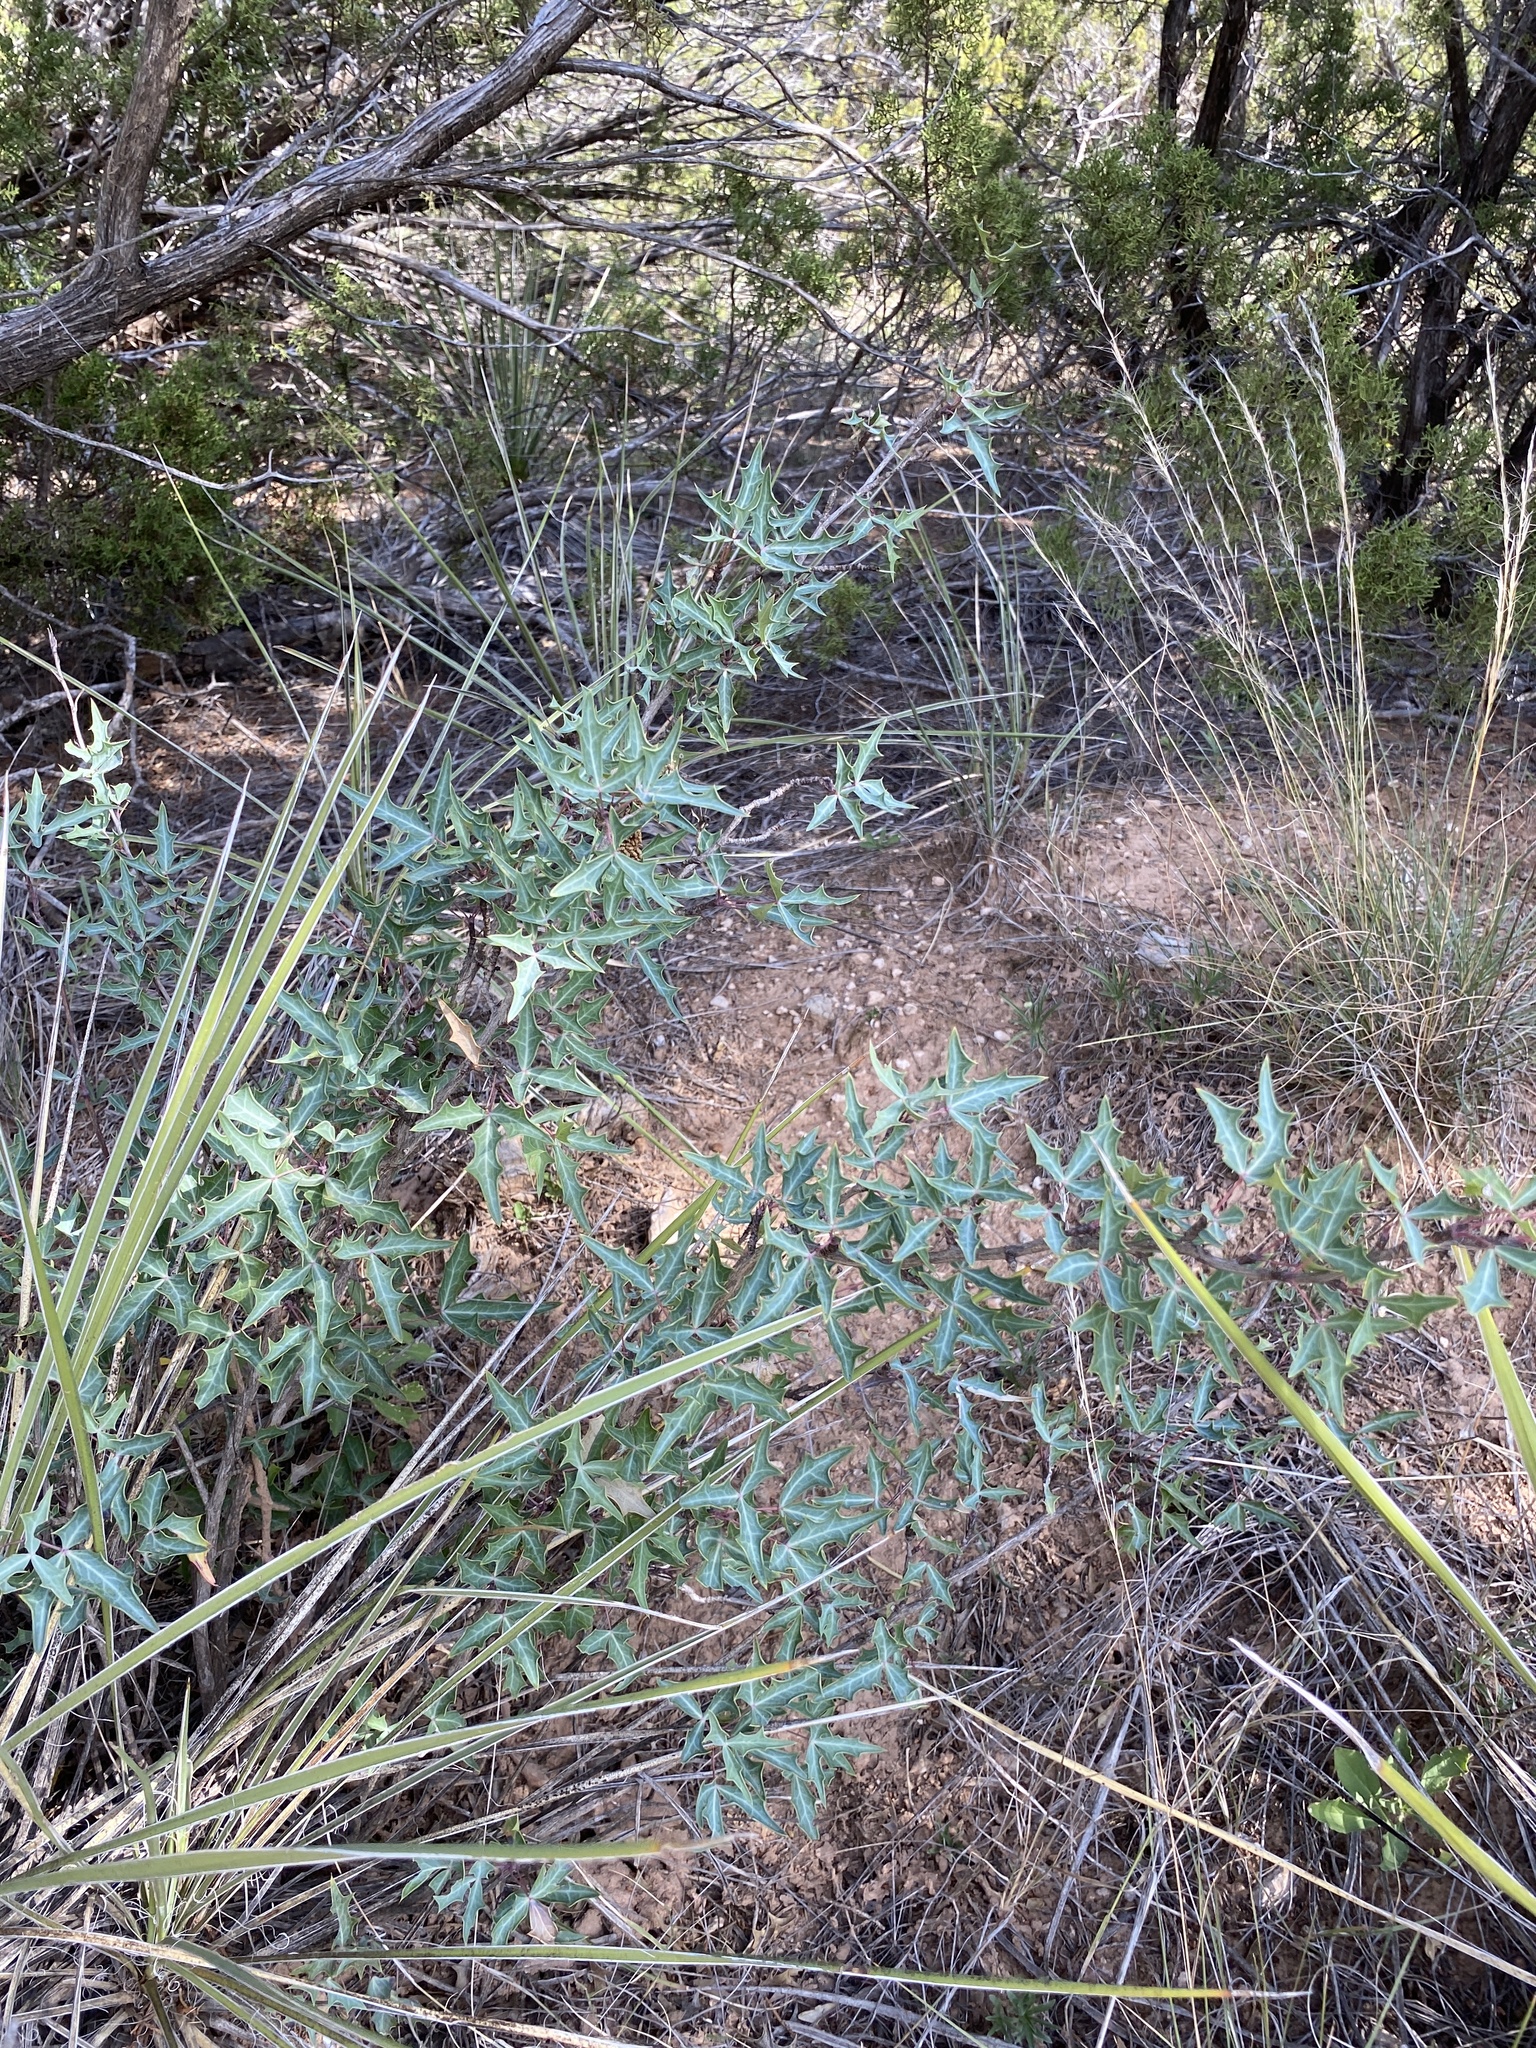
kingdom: Plantae
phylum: Tracheophyta
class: Magnoliopsida
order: Ranunculales
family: Berberidaceae
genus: Alloberberis
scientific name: Alloberberis trifoliolata
